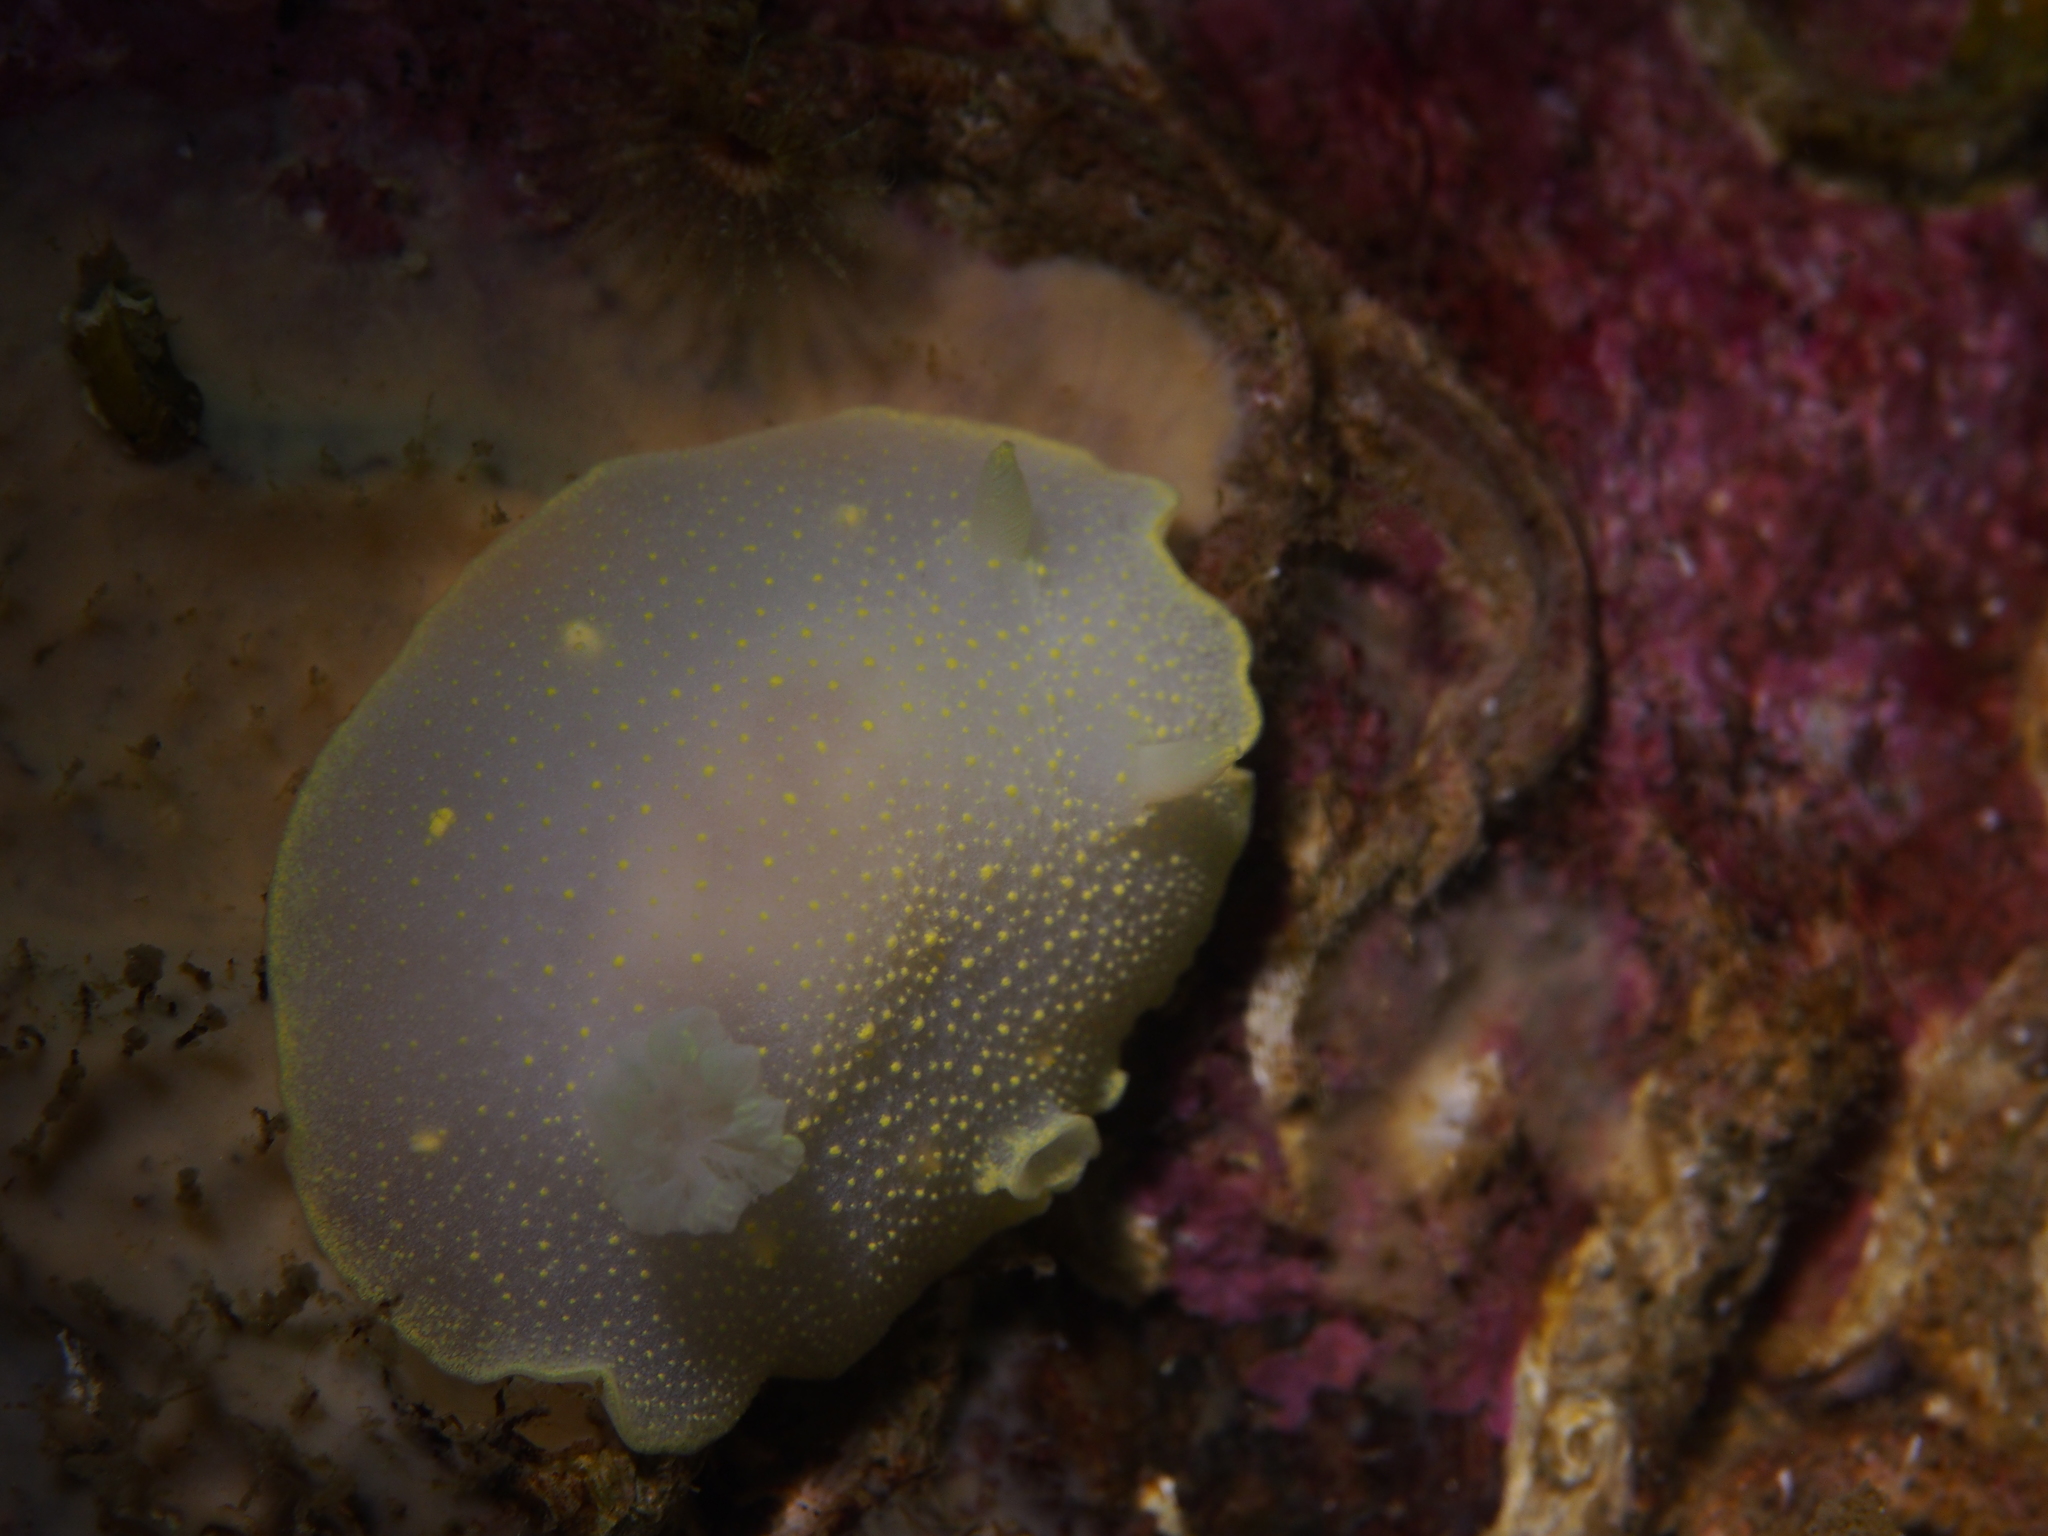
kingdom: Animalia
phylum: Mollusca
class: Gastropoda
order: Nudibranchia
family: Cadlinidae
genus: Cadlina
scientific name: Cadlina laevis
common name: White atlantic cadlina
